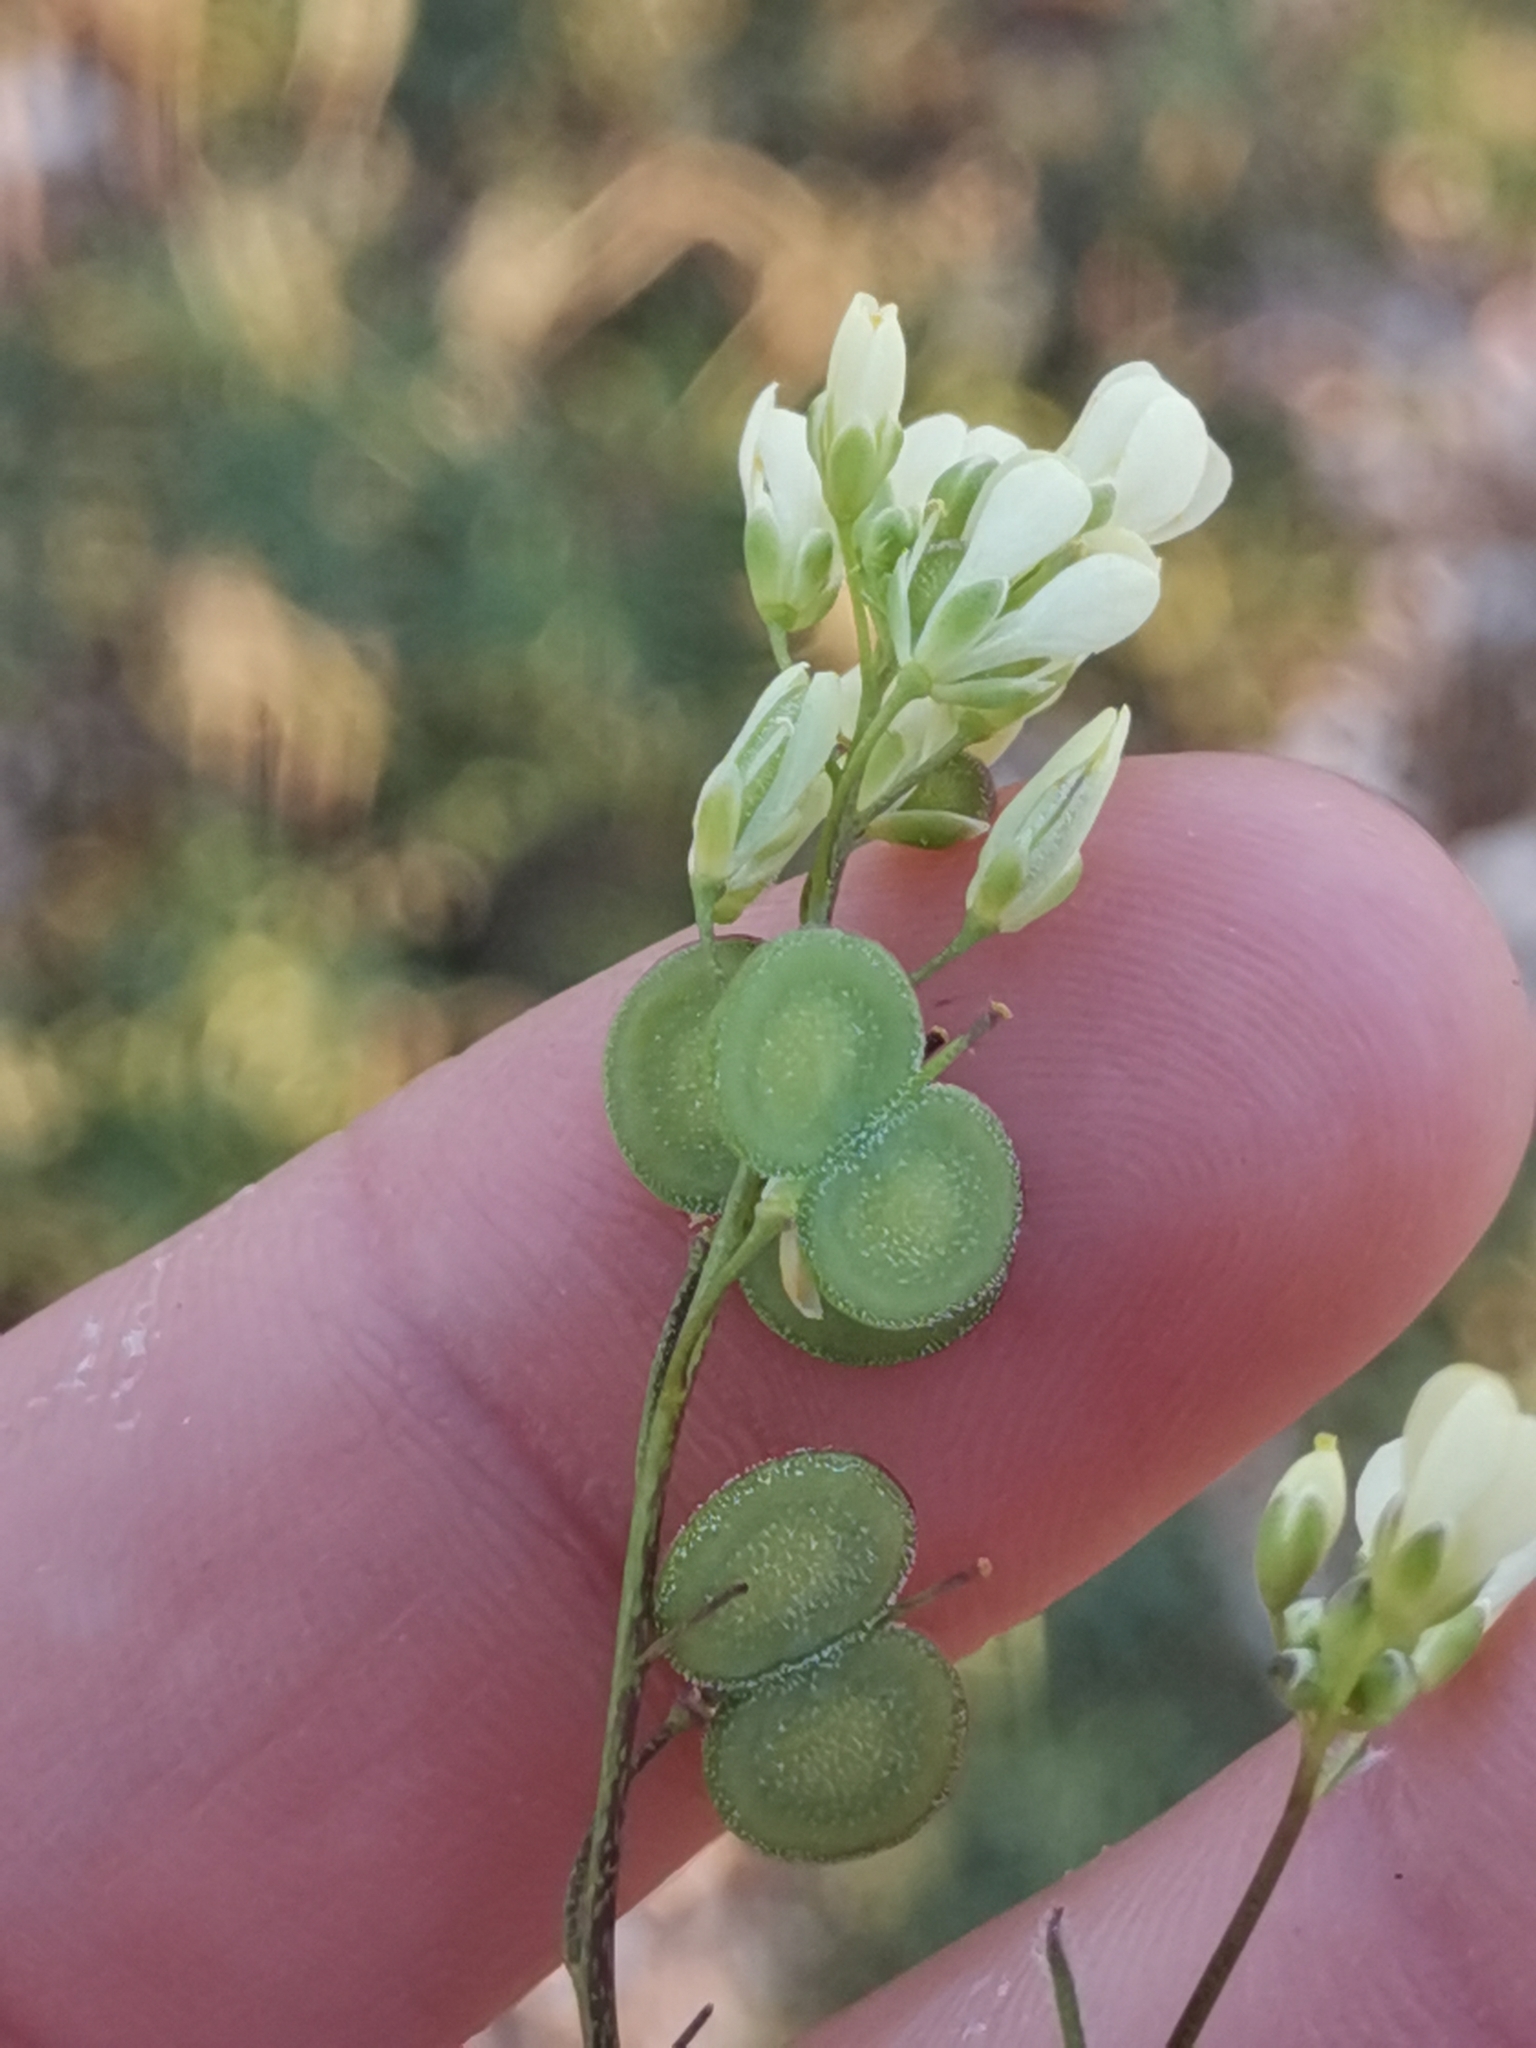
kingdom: Plantae
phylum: Tracheophyta
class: Magnoliopsida
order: Brassicales
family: Brassicaceae
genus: Biscutella
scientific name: Biscutella didyma
